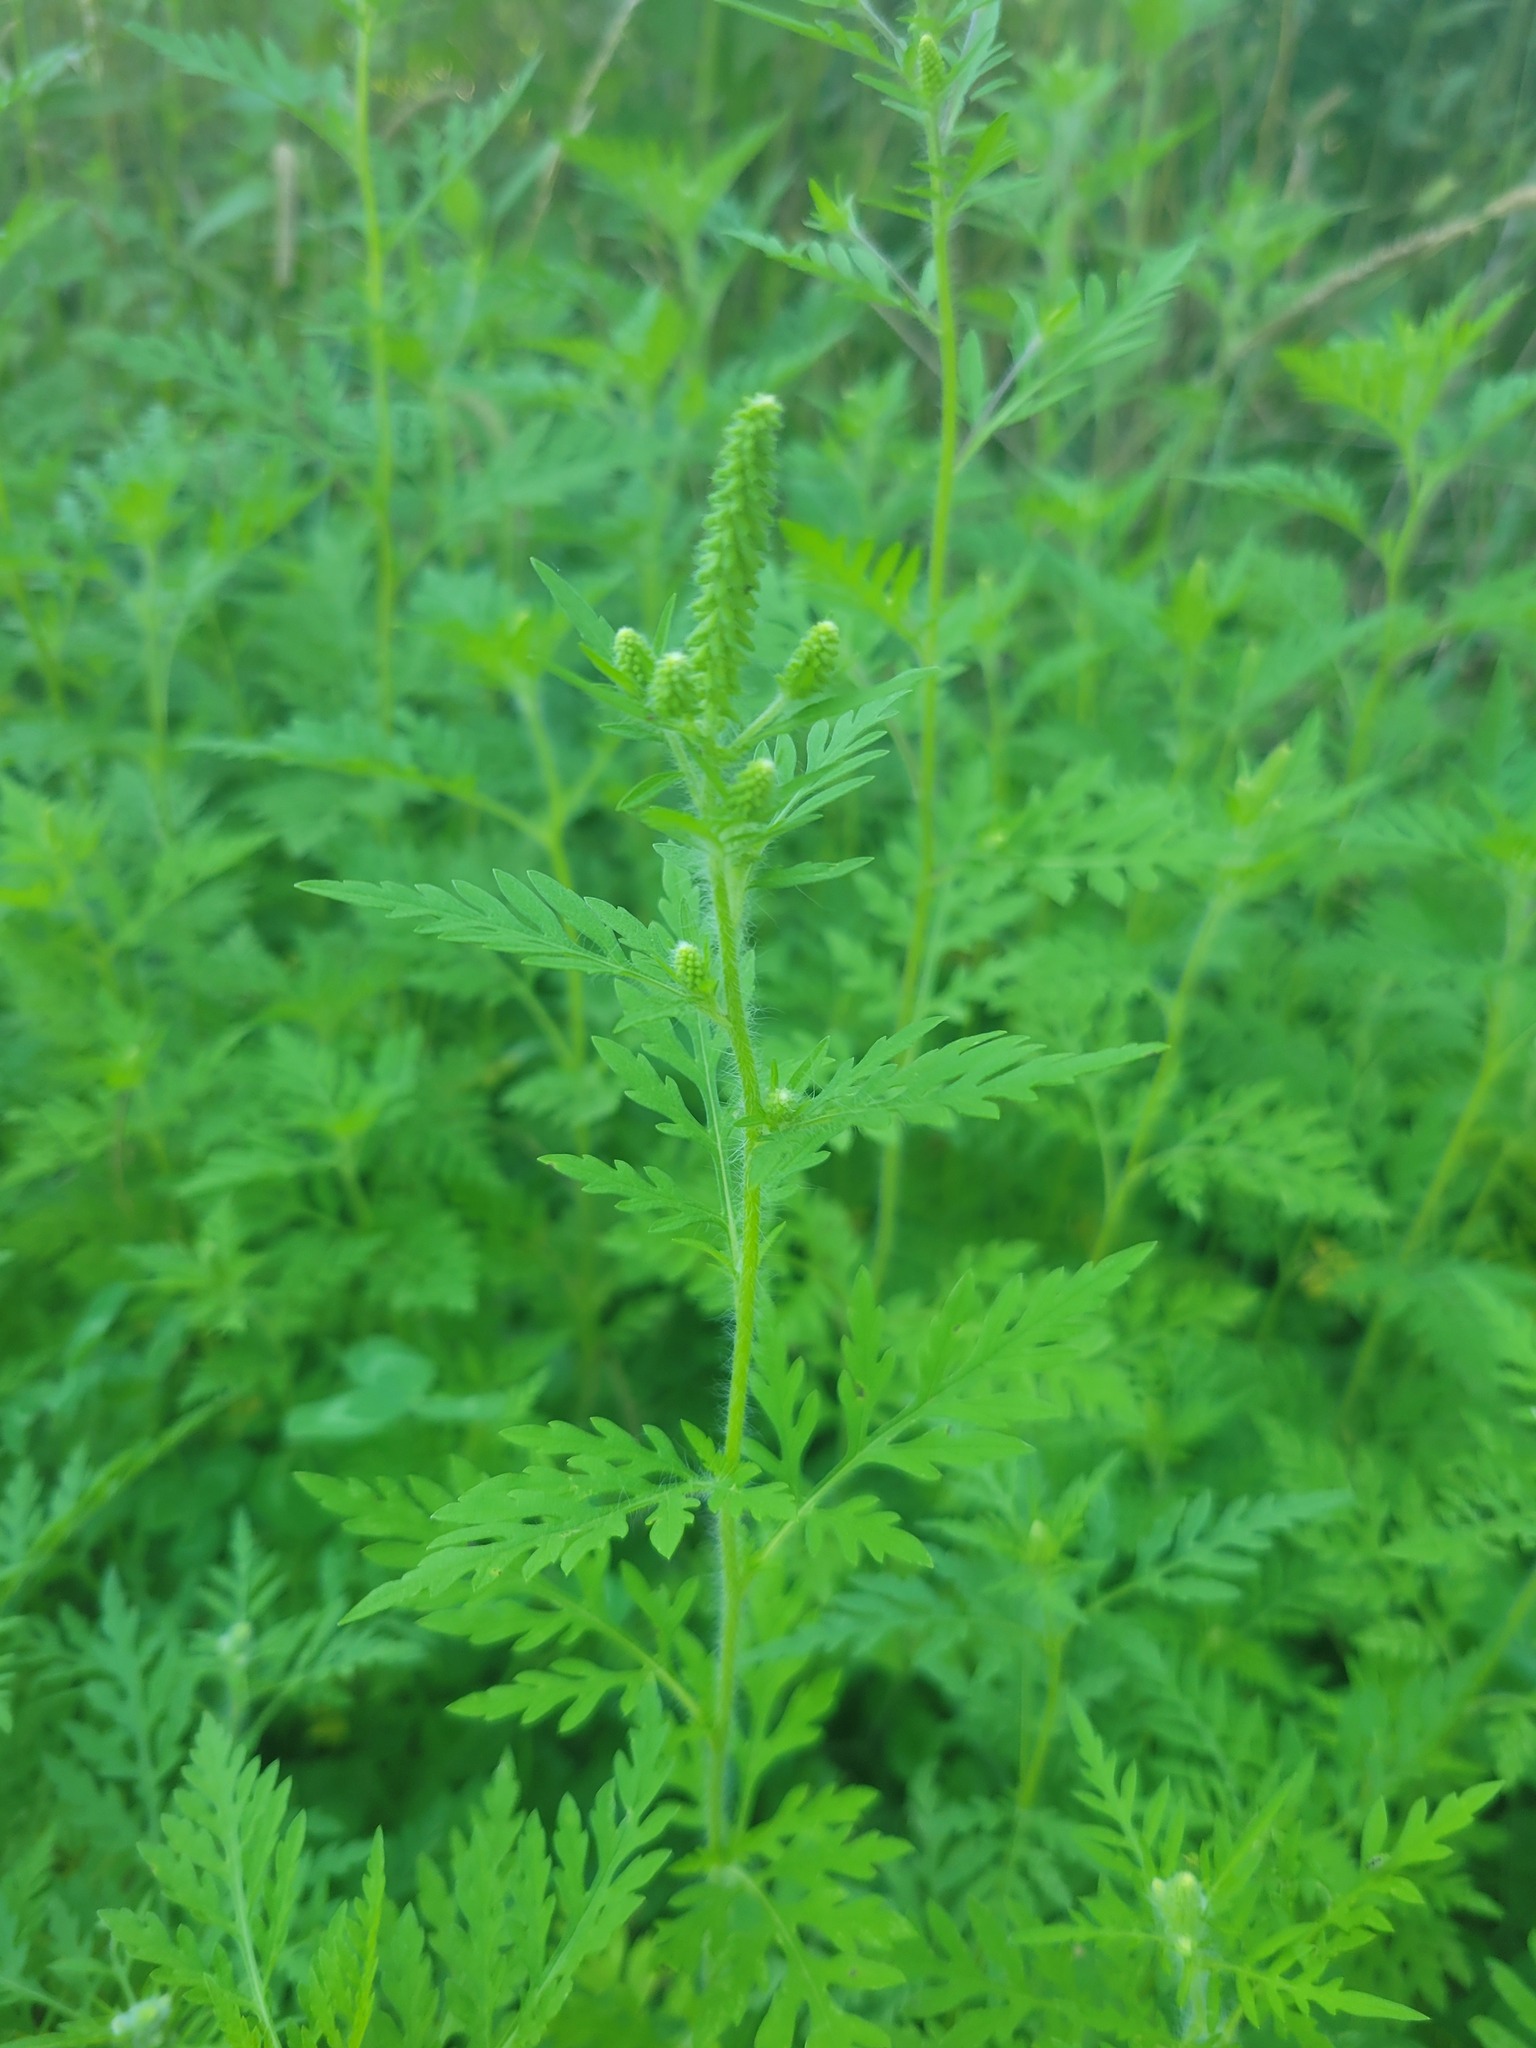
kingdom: Plantae
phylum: Tracheophyta
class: Magnoliopsida
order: Asterales
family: Asteraceae
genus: Ambrosia
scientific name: Ambrosia artemisiifolia
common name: Annual ragweed
